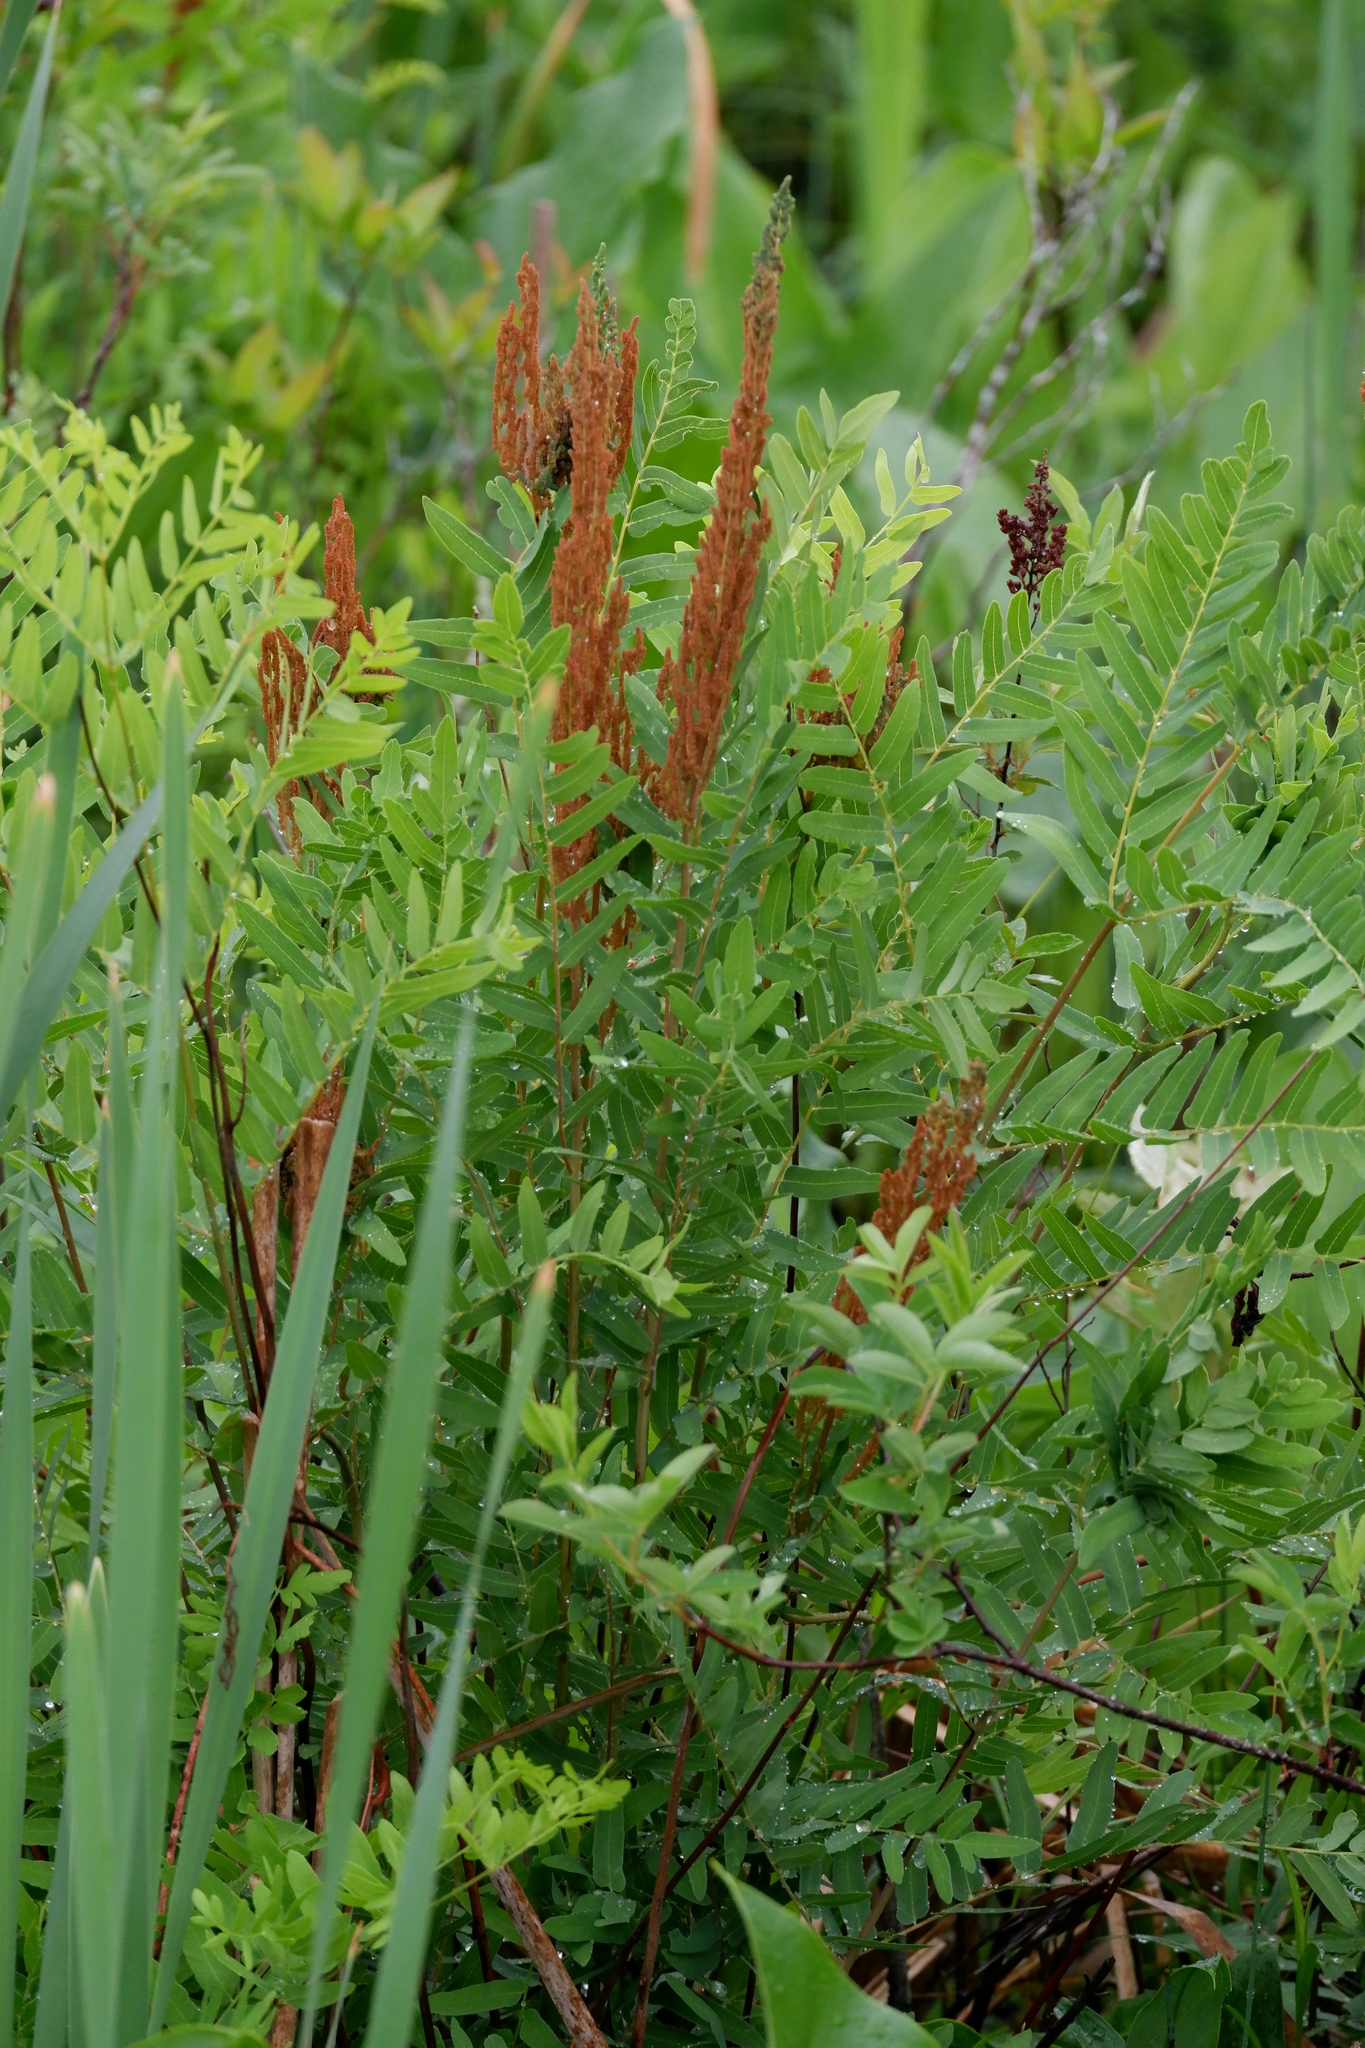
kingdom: Plantae
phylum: Tracheophyta
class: Polypodiopsida
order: Osmundales
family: Osmundaceae
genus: Osmunda
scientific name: Osmunda spectabilis
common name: American royal fern
